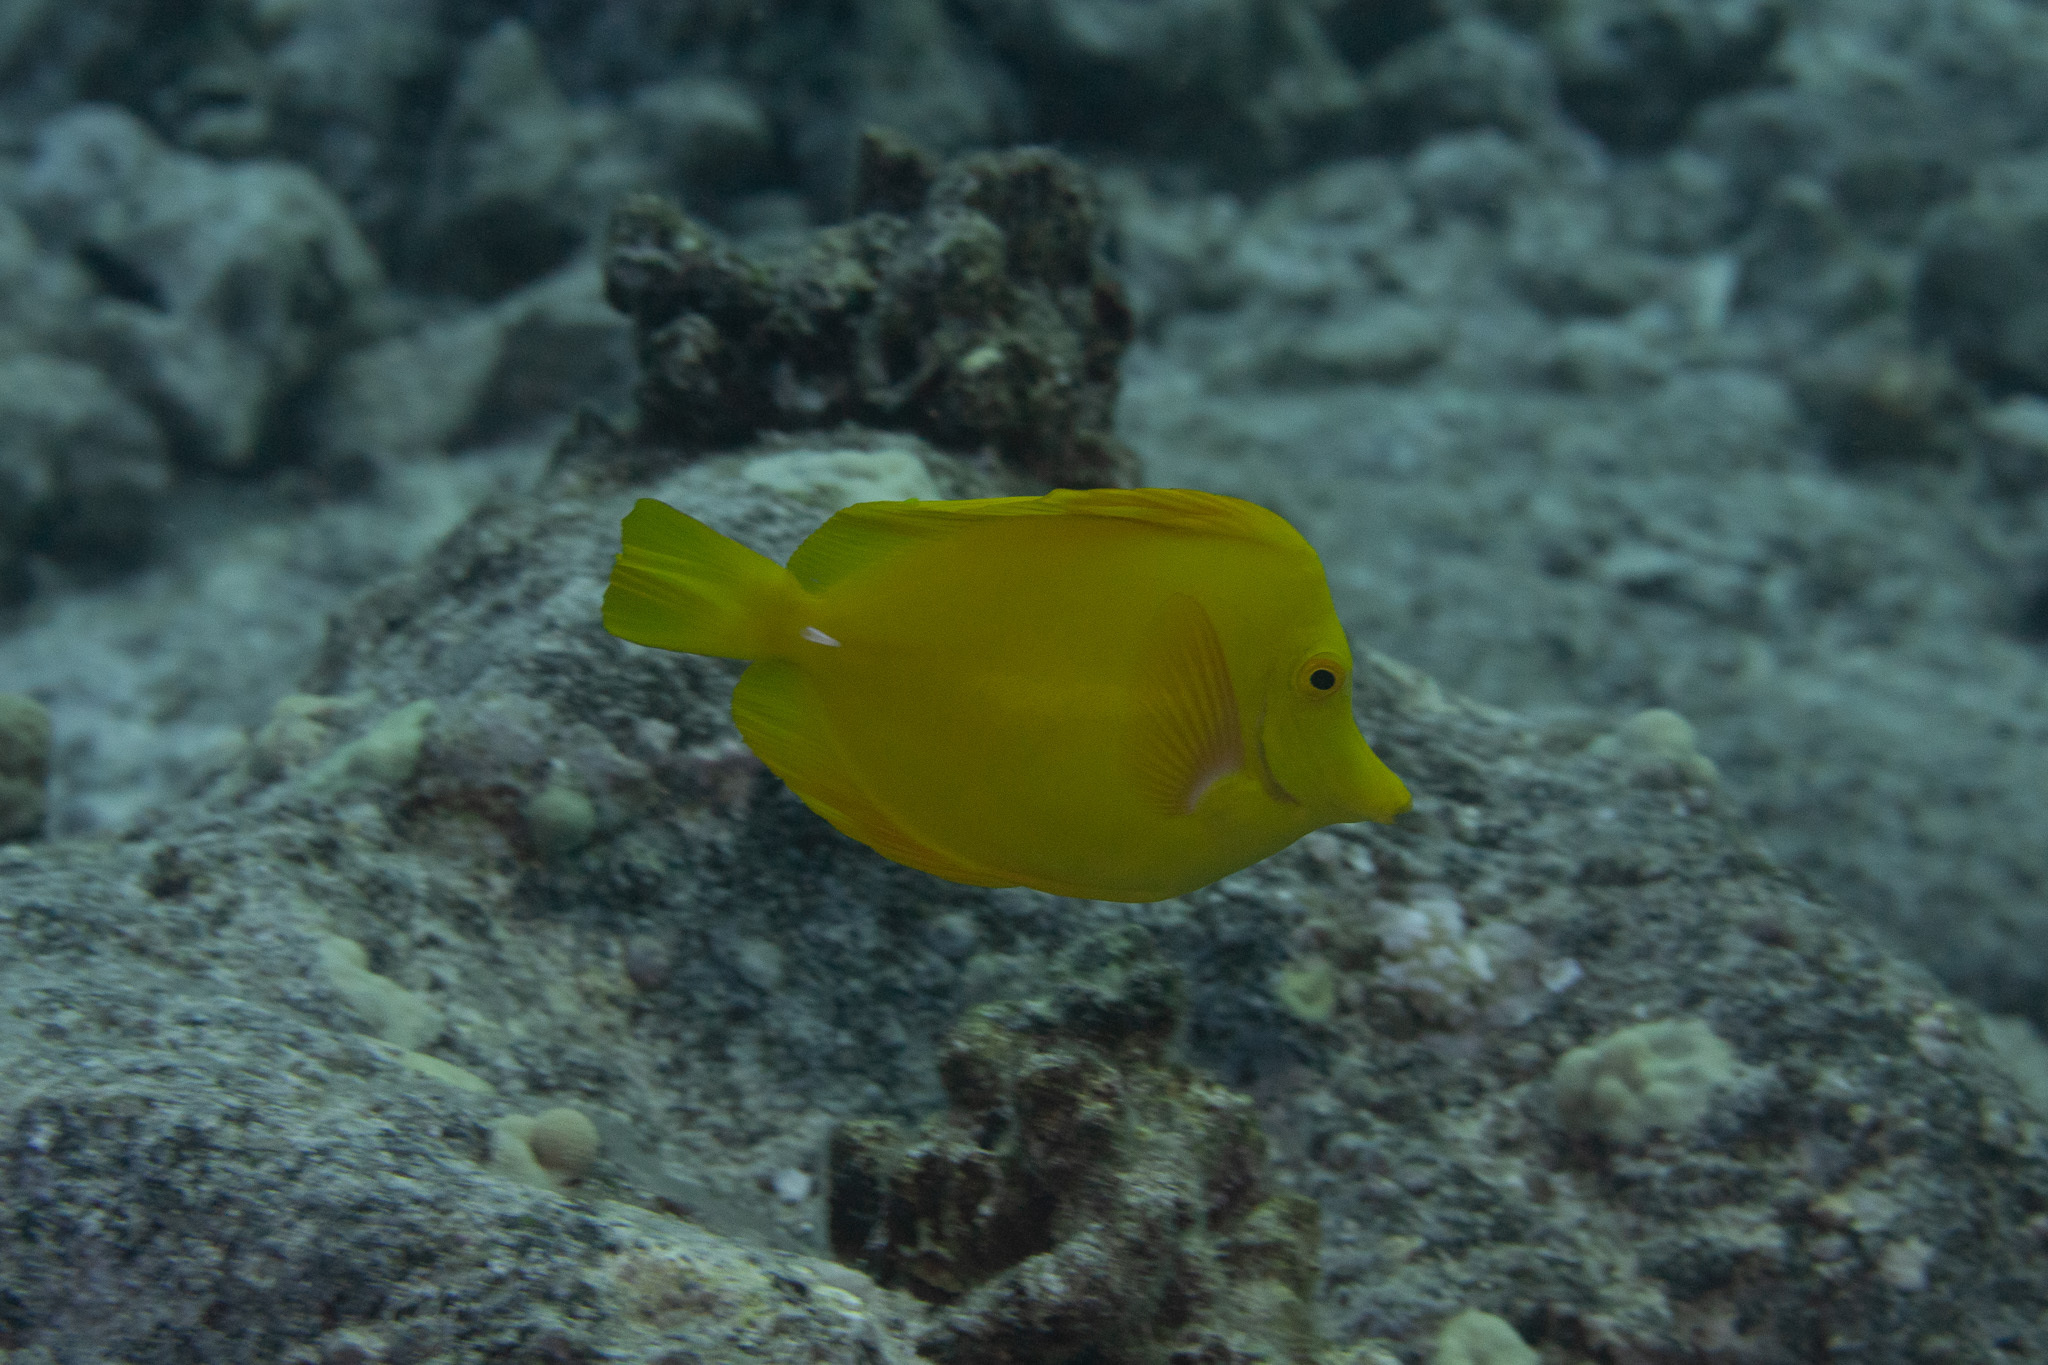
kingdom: Animalia
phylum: Chordata
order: Perciformes
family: Acanthuridae
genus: Zebrasoma
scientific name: Zebrasoma flavescens
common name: Yellow tang
